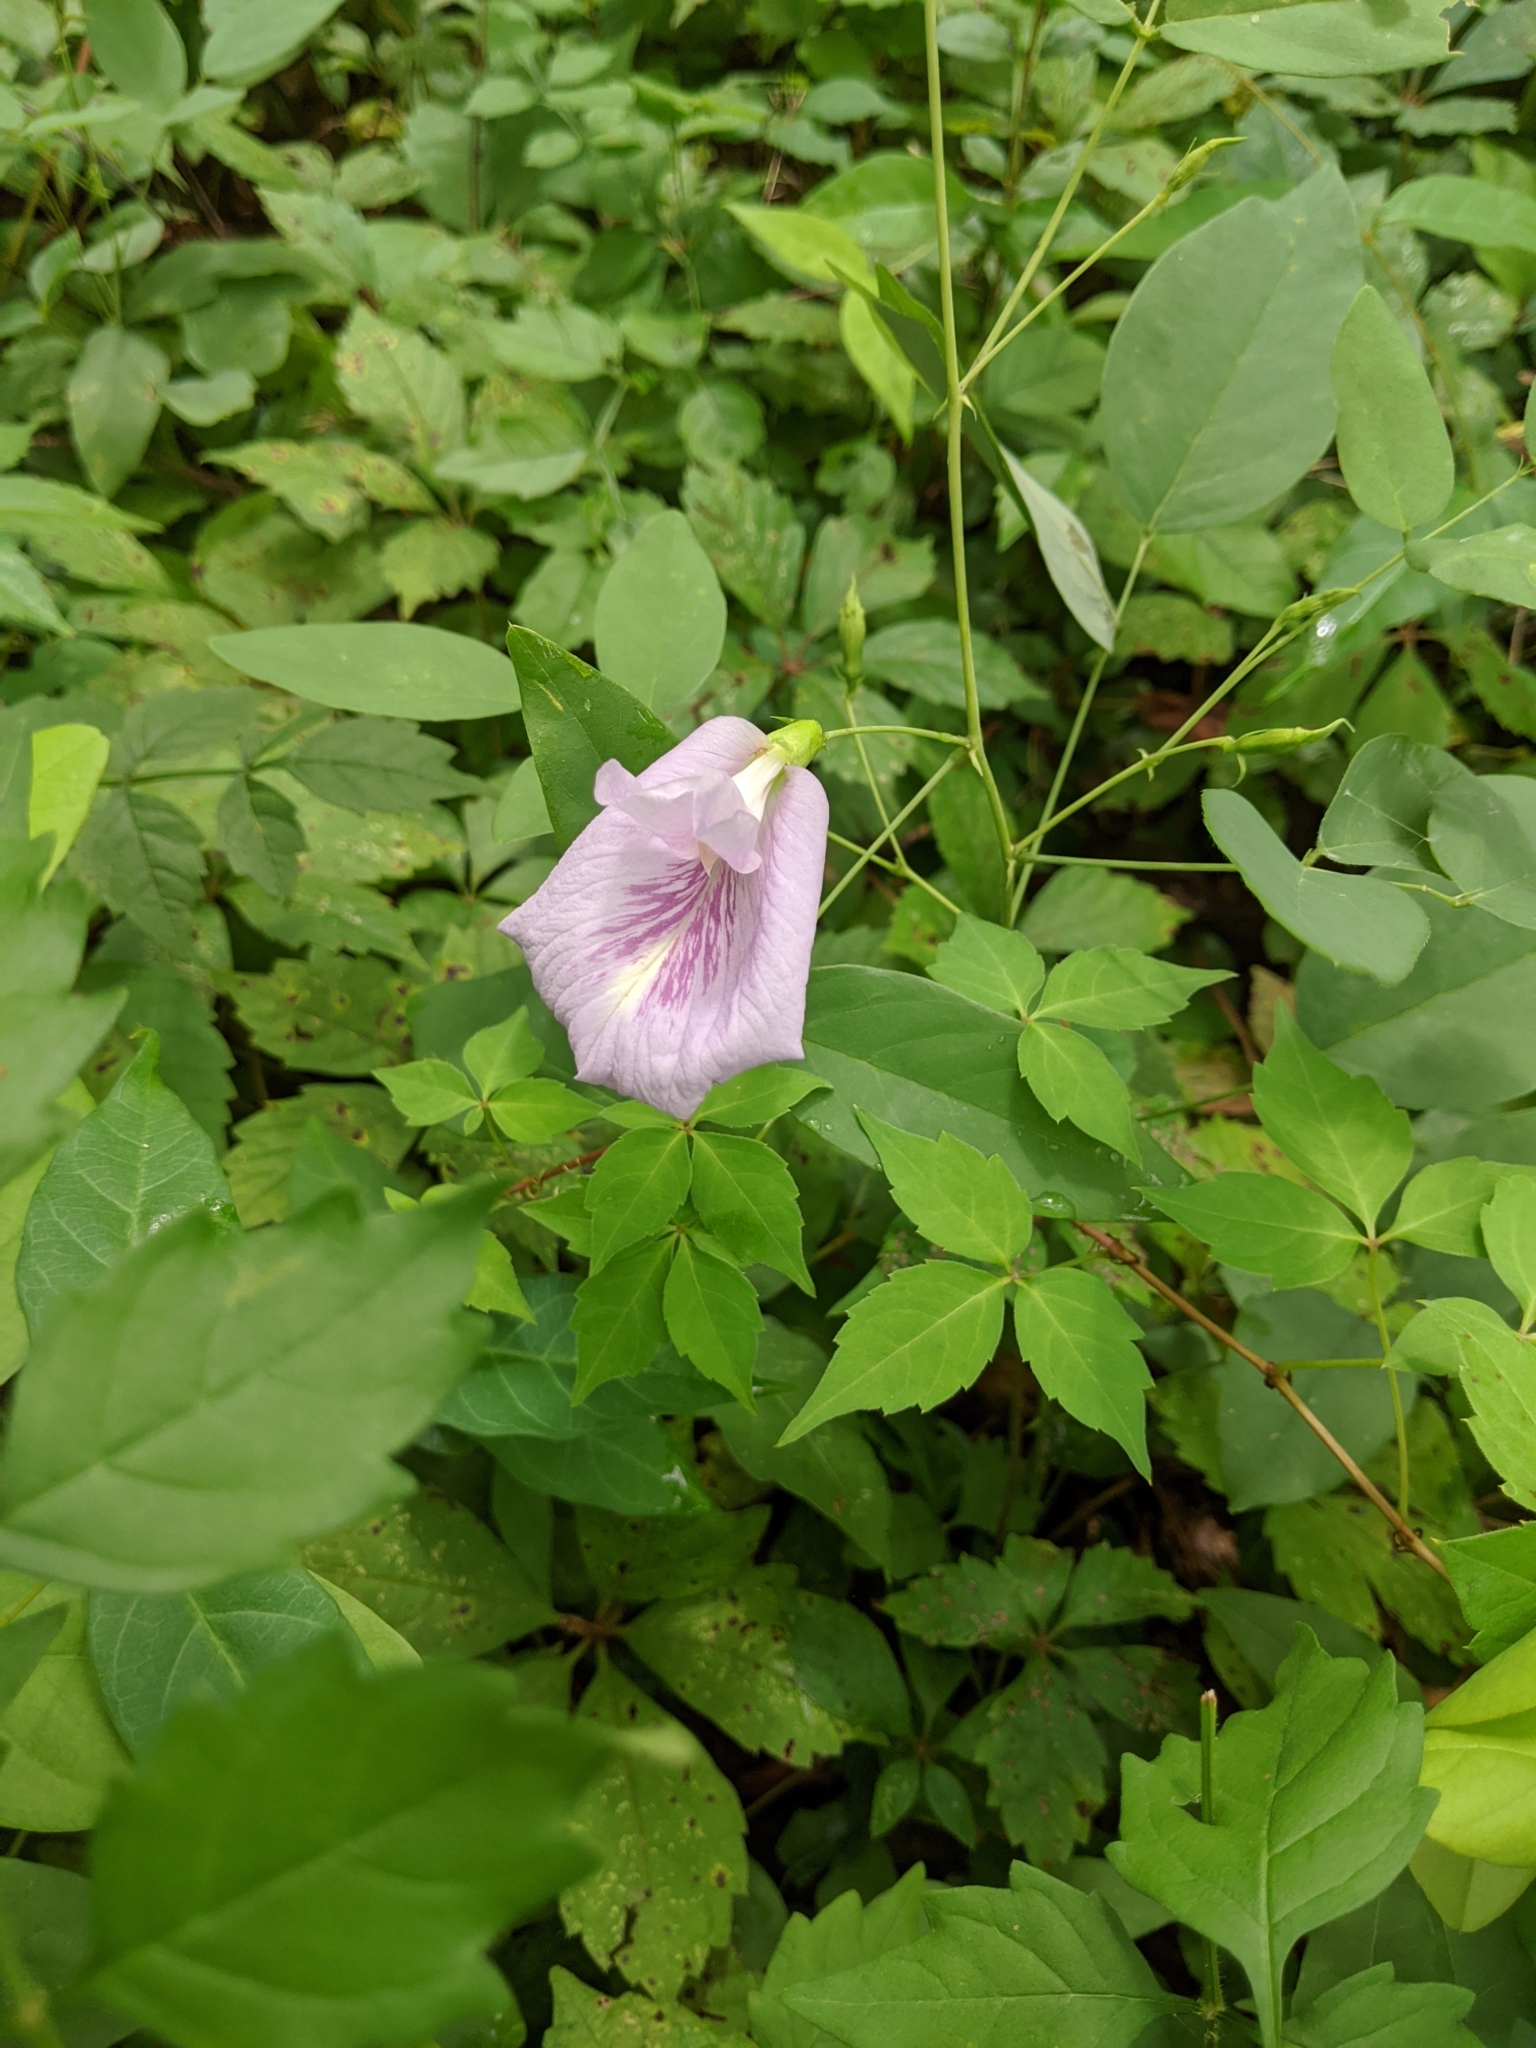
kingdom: Plantae
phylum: Tracheophyta
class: Magnoliopsida
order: Fabales
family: Fabaceae
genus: Clitoria
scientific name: Clitoria mariana
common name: Butterfly-pea
